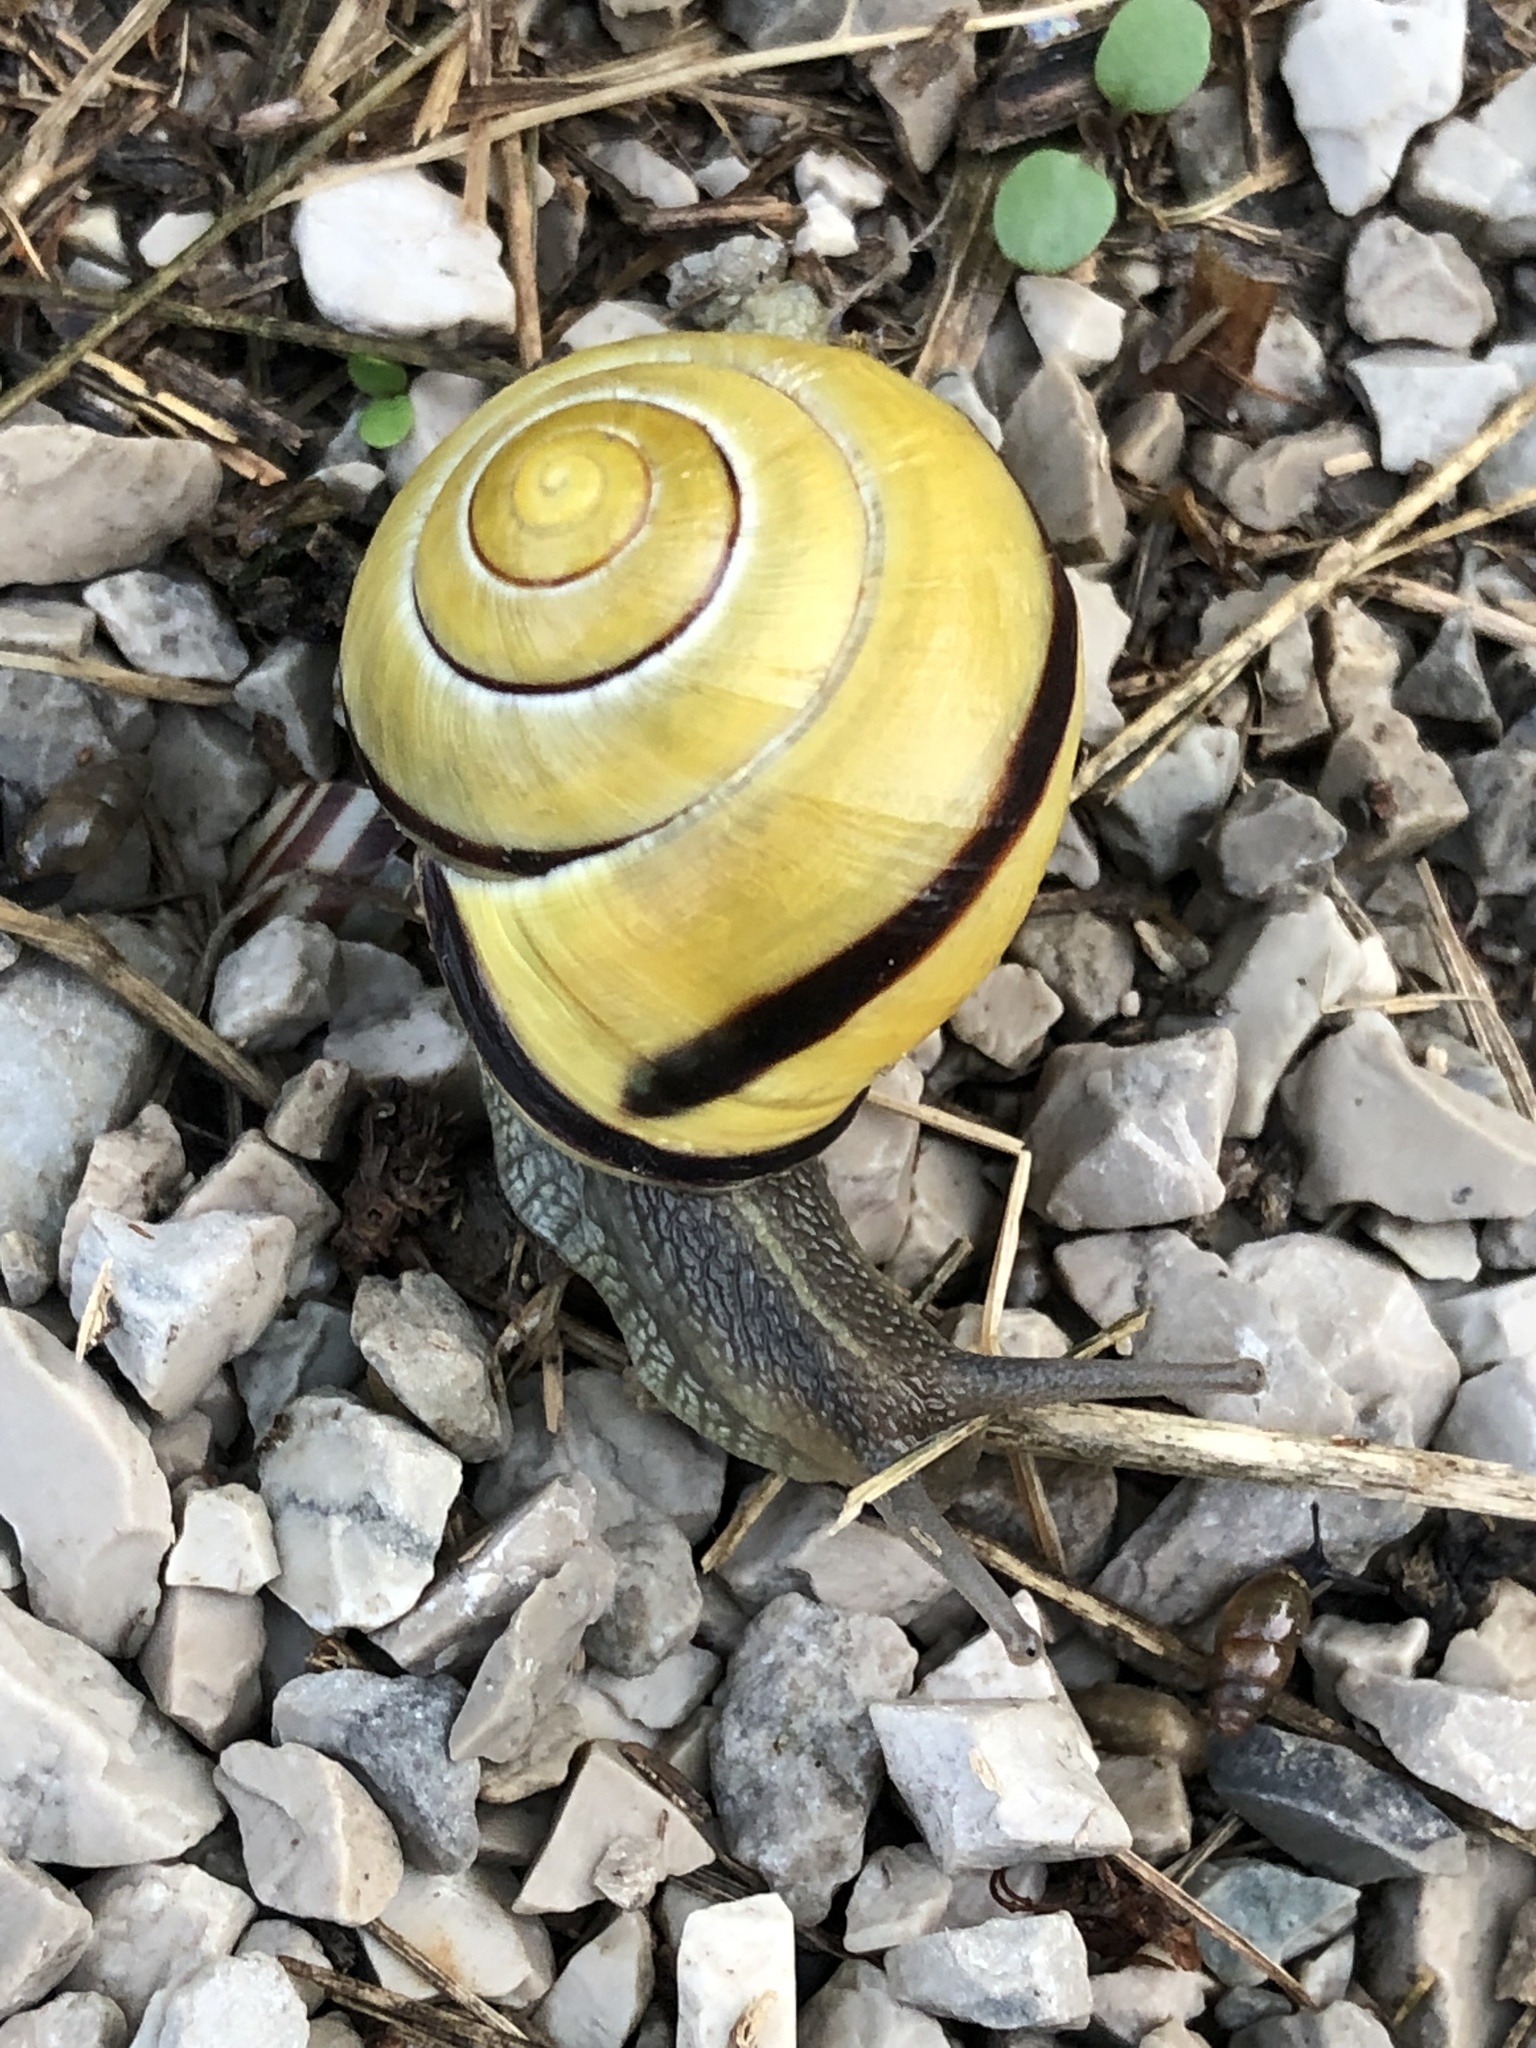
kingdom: Animalia
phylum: Mollusca
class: Gastropoda
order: Stylommatophora
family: Helicidae
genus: Cepaea
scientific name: Cepaea nemoralis
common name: Grovesnail
